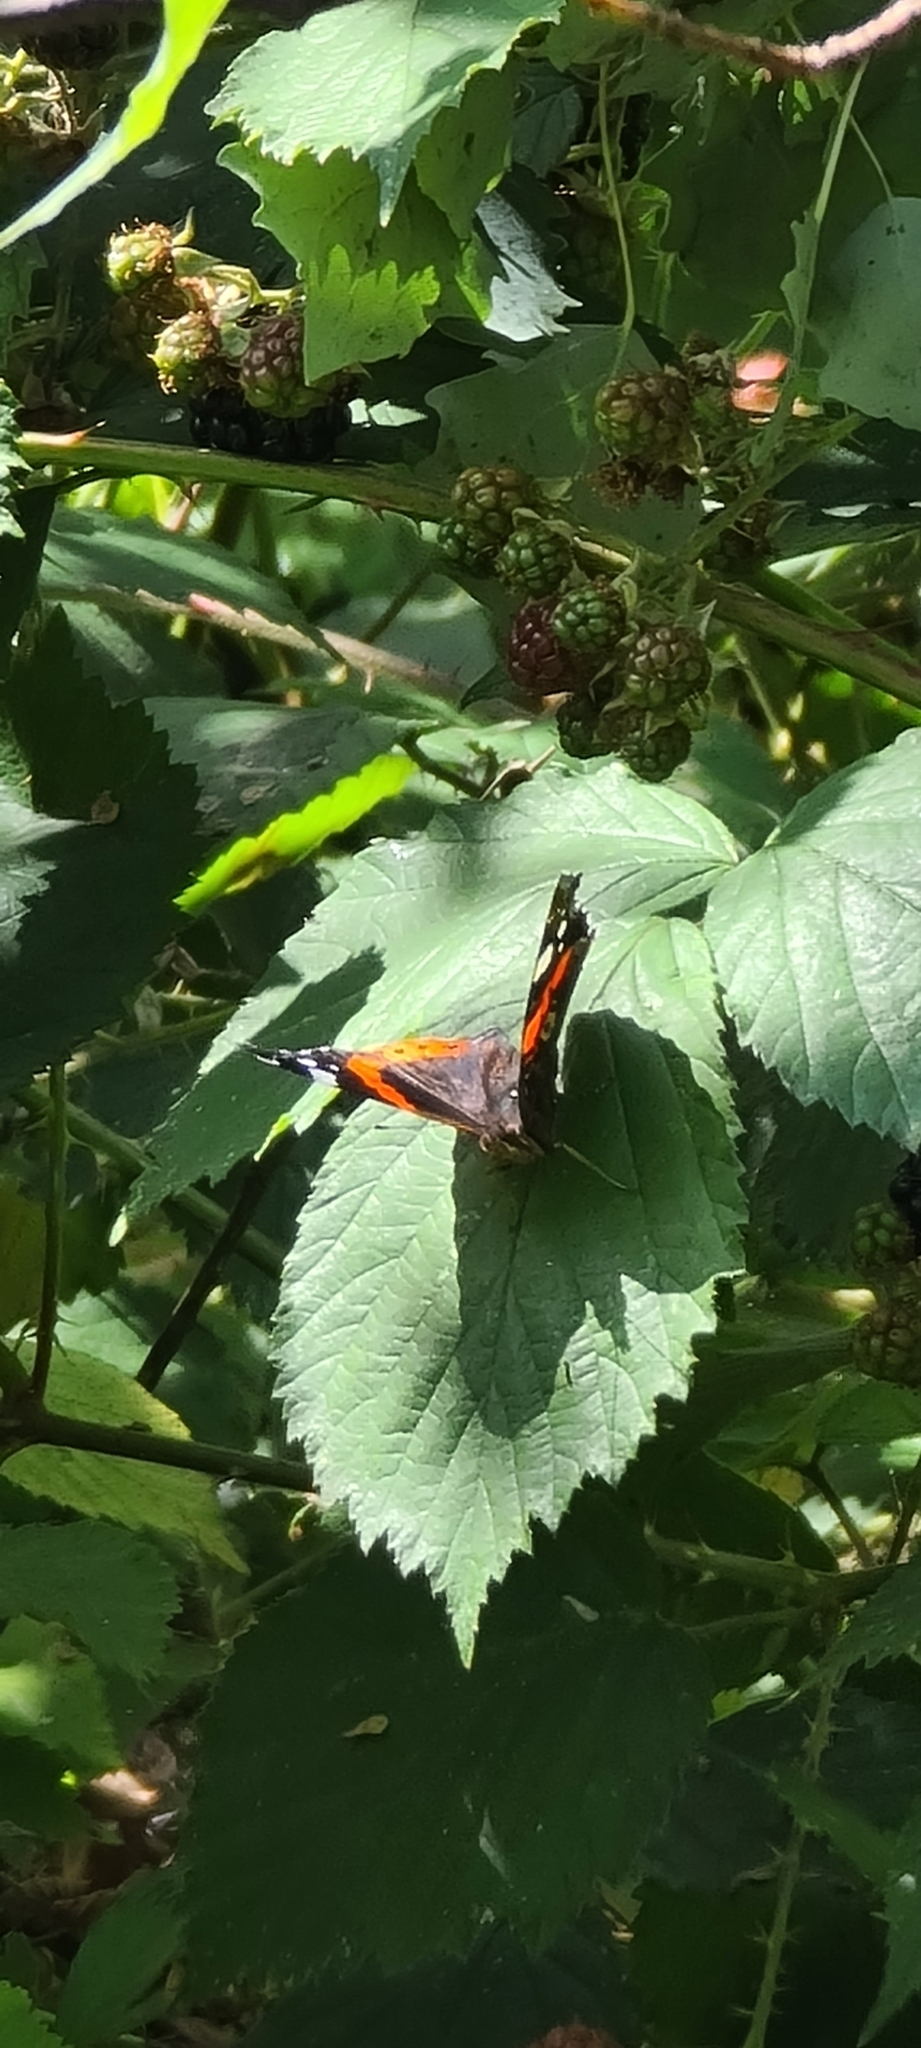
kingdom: Animalia
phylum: Arthropoda
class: Insecta
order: Lepidoptera
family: Nymphalidae
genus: Vanessa
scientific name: Vanessa atalanta
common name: Red admiral
